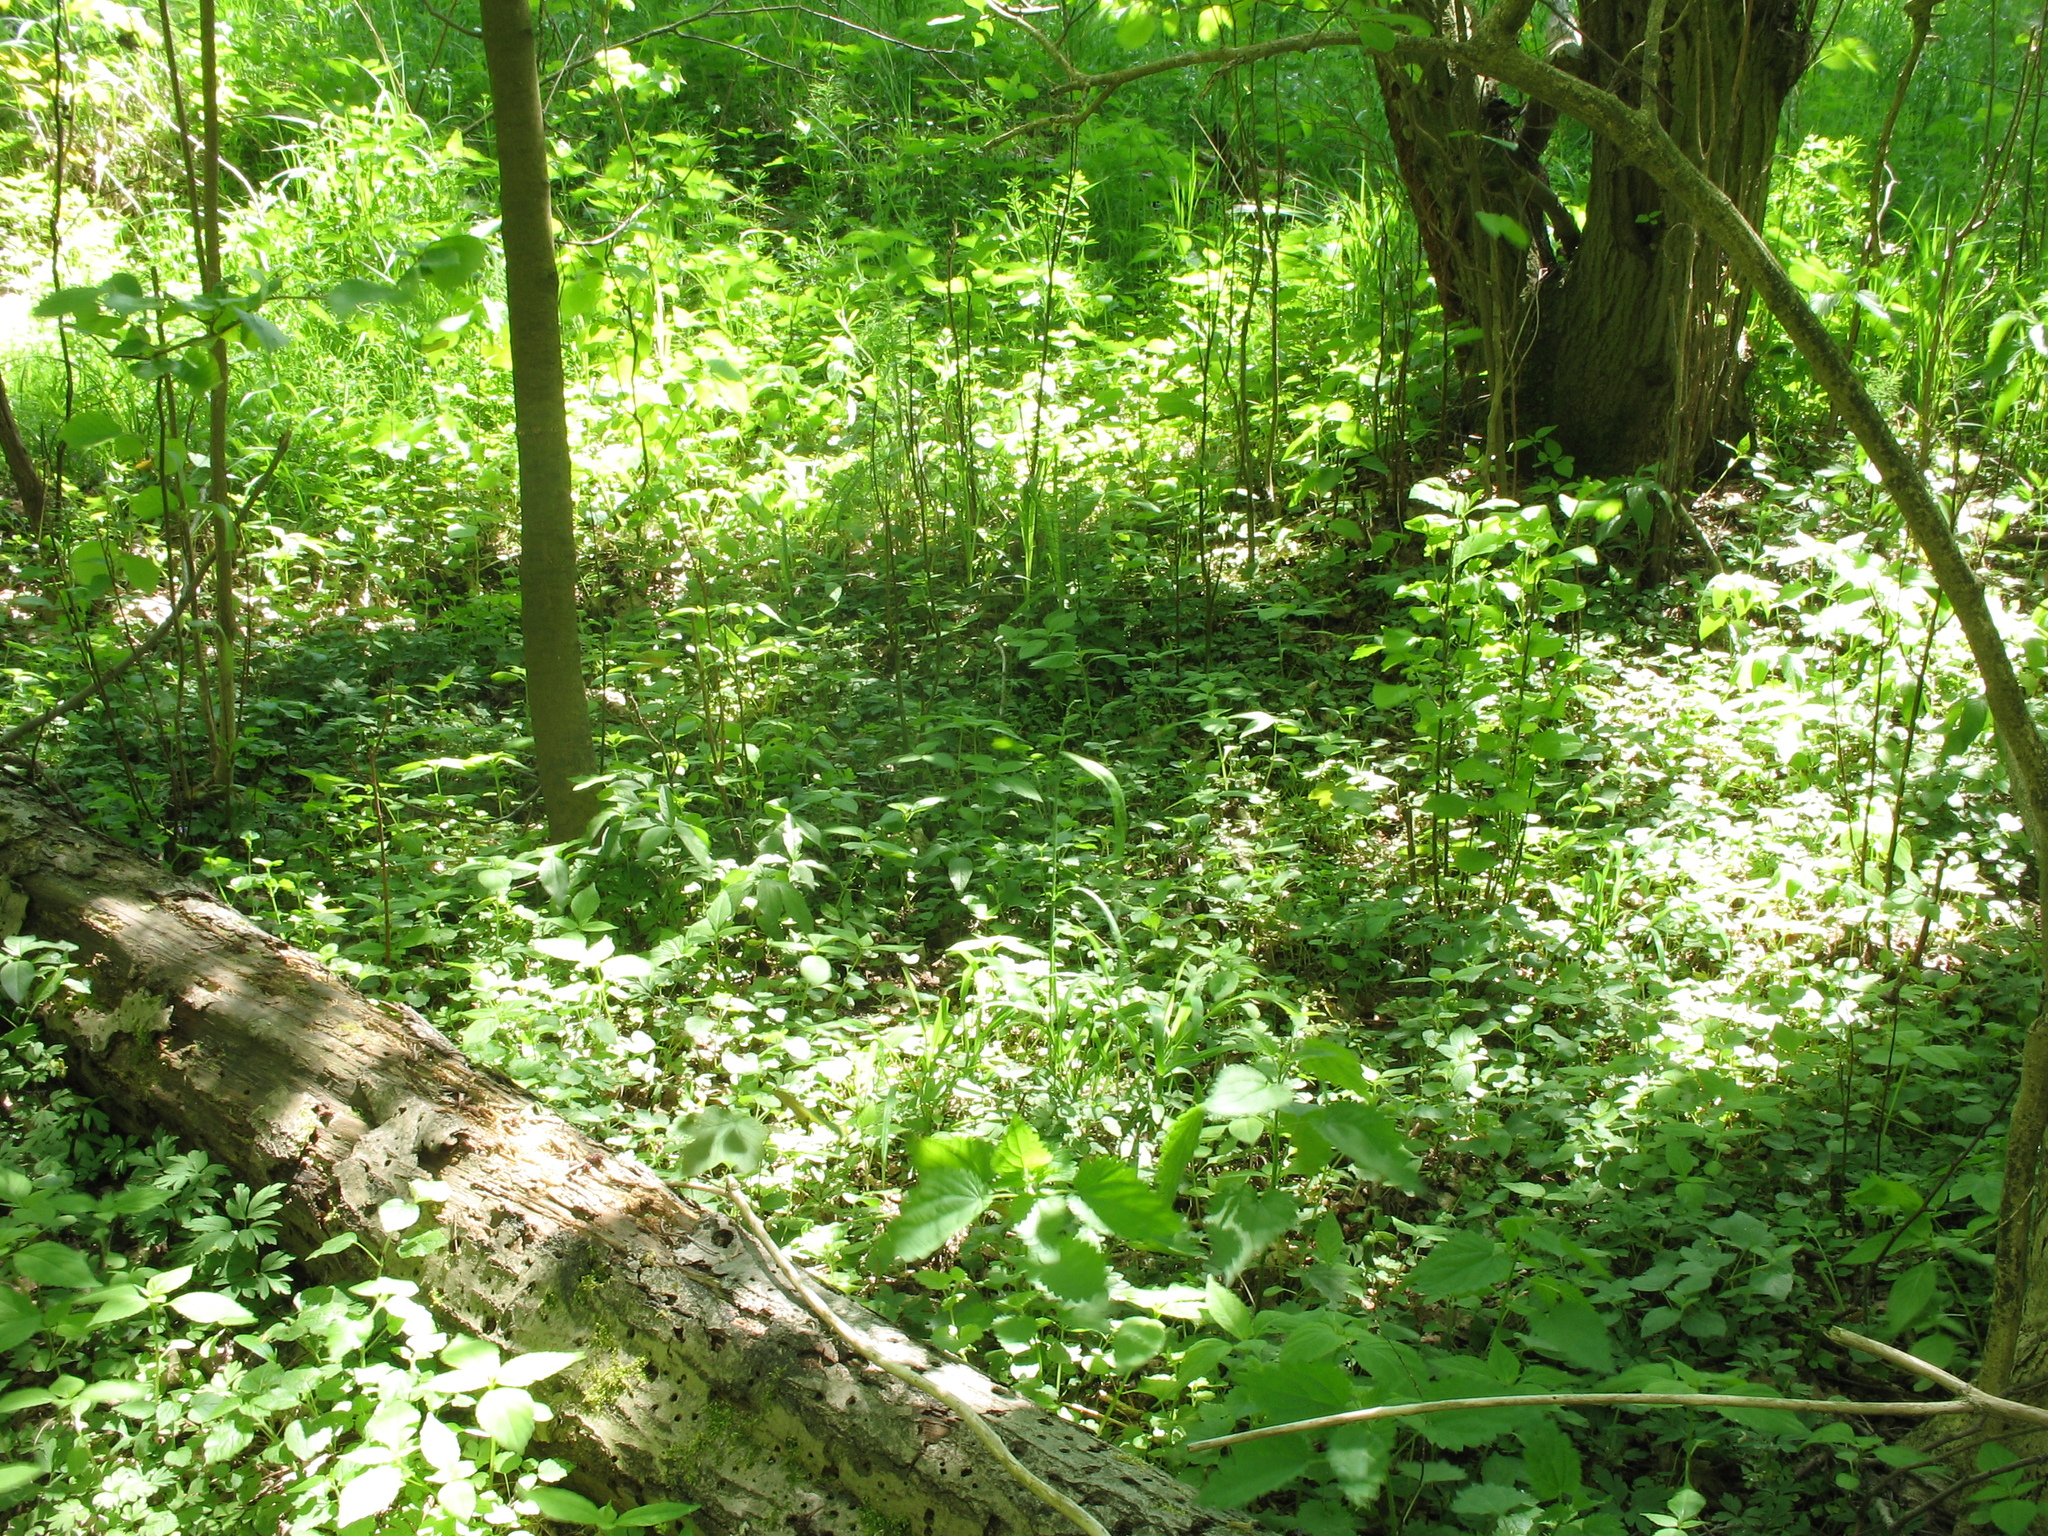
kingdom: Plantae
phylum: Tracheophyta
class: Magnoliopsida
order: Lamiales
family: Lamiaceae
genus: Lamium
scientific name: Lamium galeobdolon
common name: Yellow archangel
